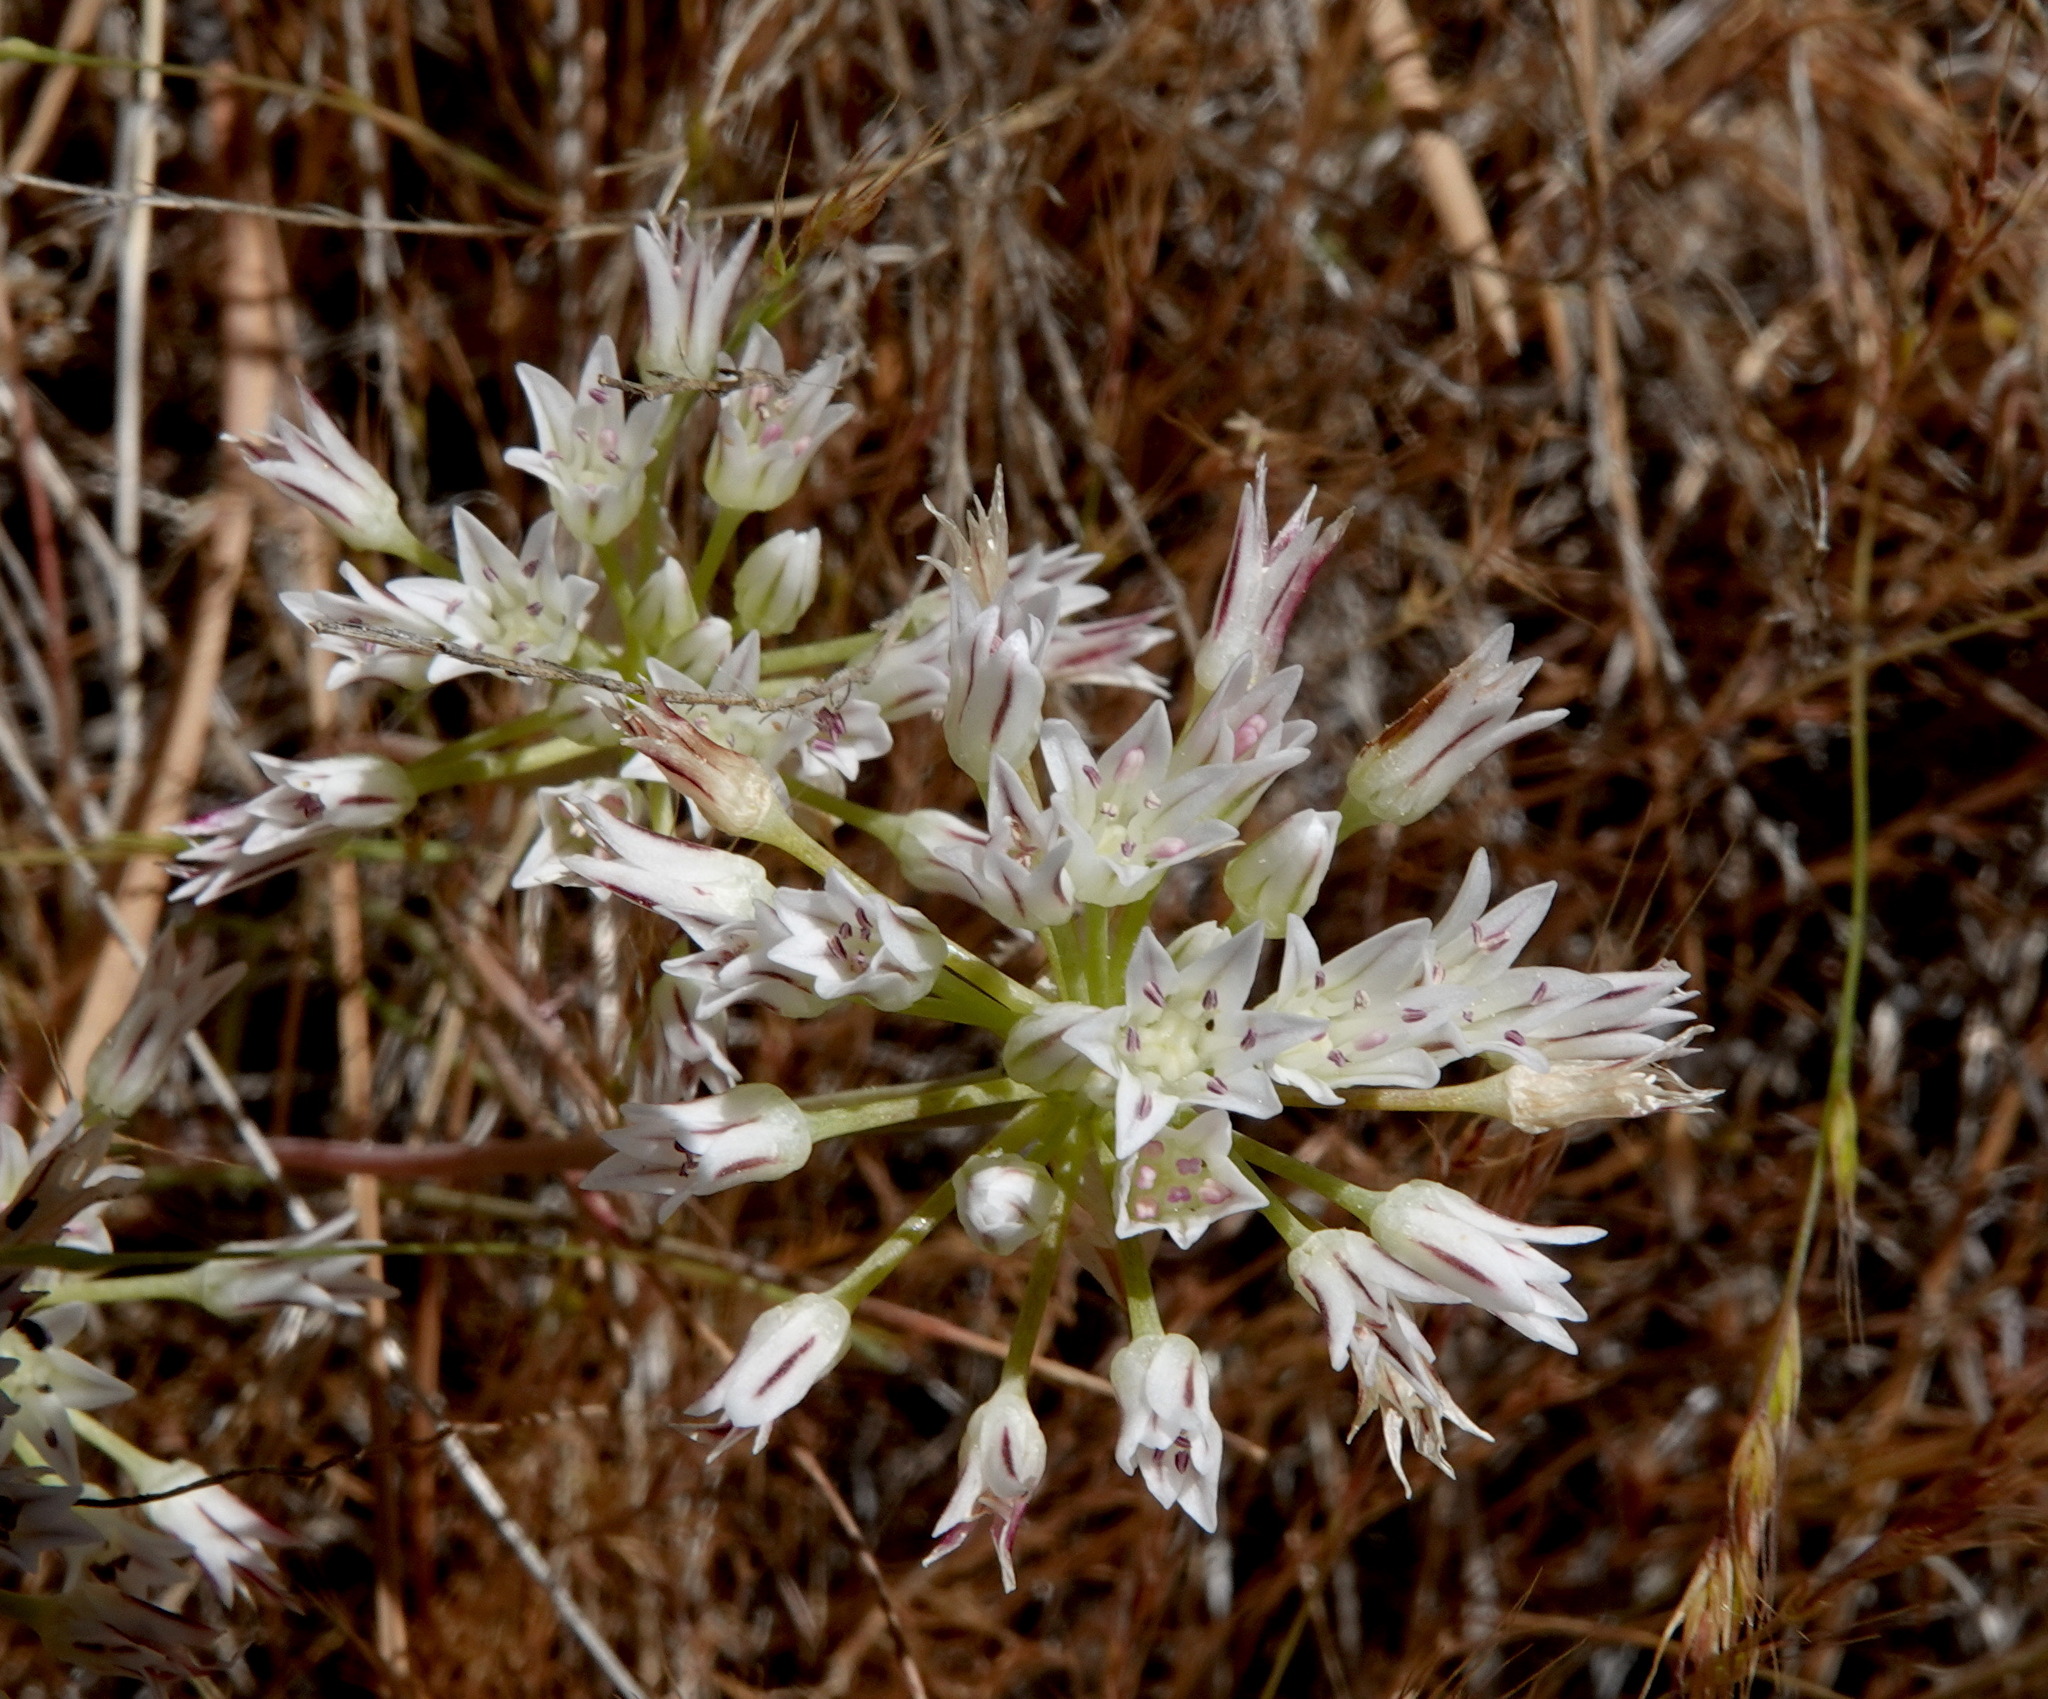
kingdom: Plantae
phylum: Tracheophyta
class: Liliopsida
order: Asparagales
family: Amaryllidaceae
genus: Allium
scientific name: Allium lacunosum
